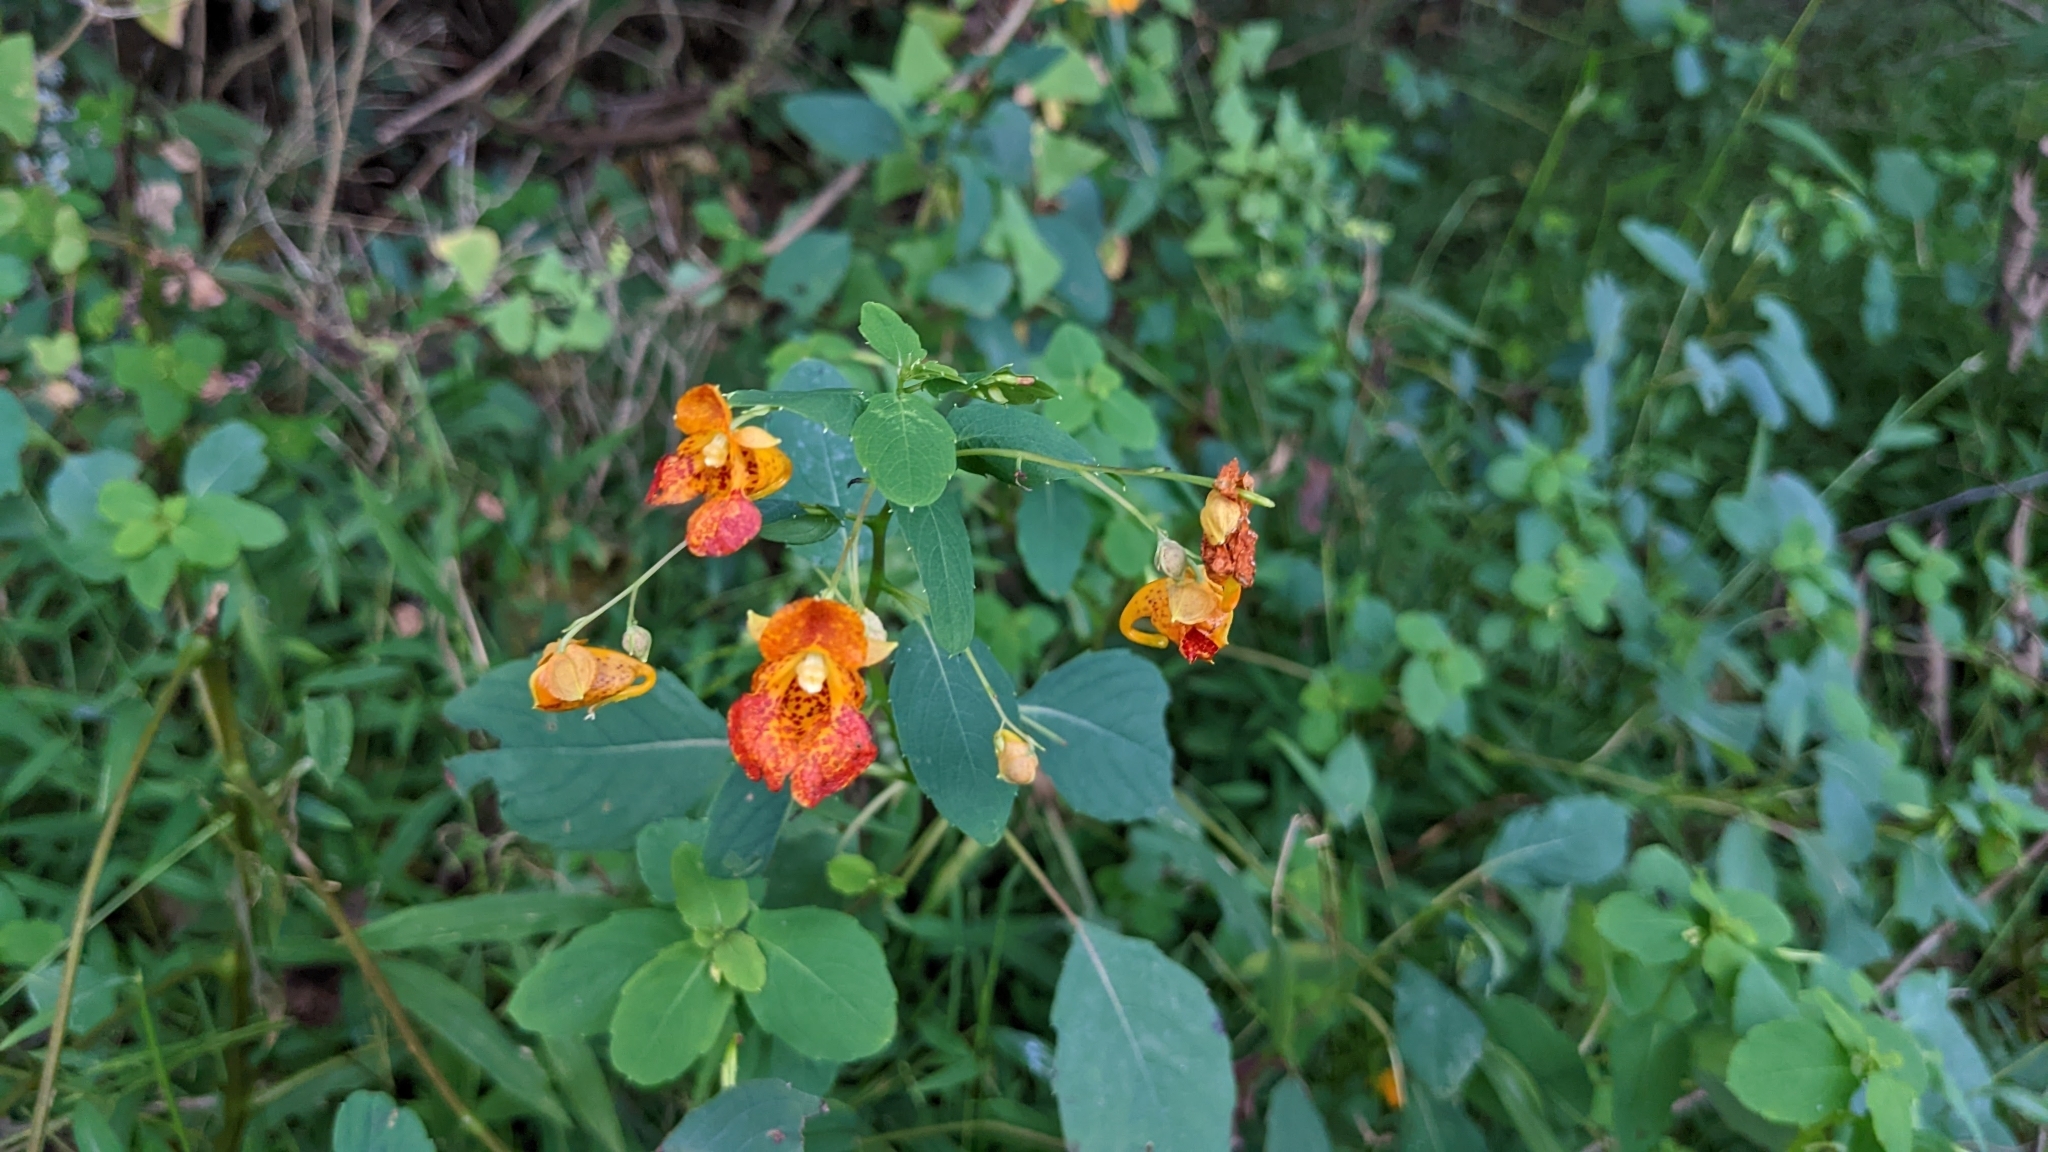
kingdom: Plantae
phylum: Tracheophyta
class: Magnoliopsida
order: Ericales
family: Balsaminaceae
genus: Impatiens
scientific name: Impatiens capensis
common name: Orange balsam
